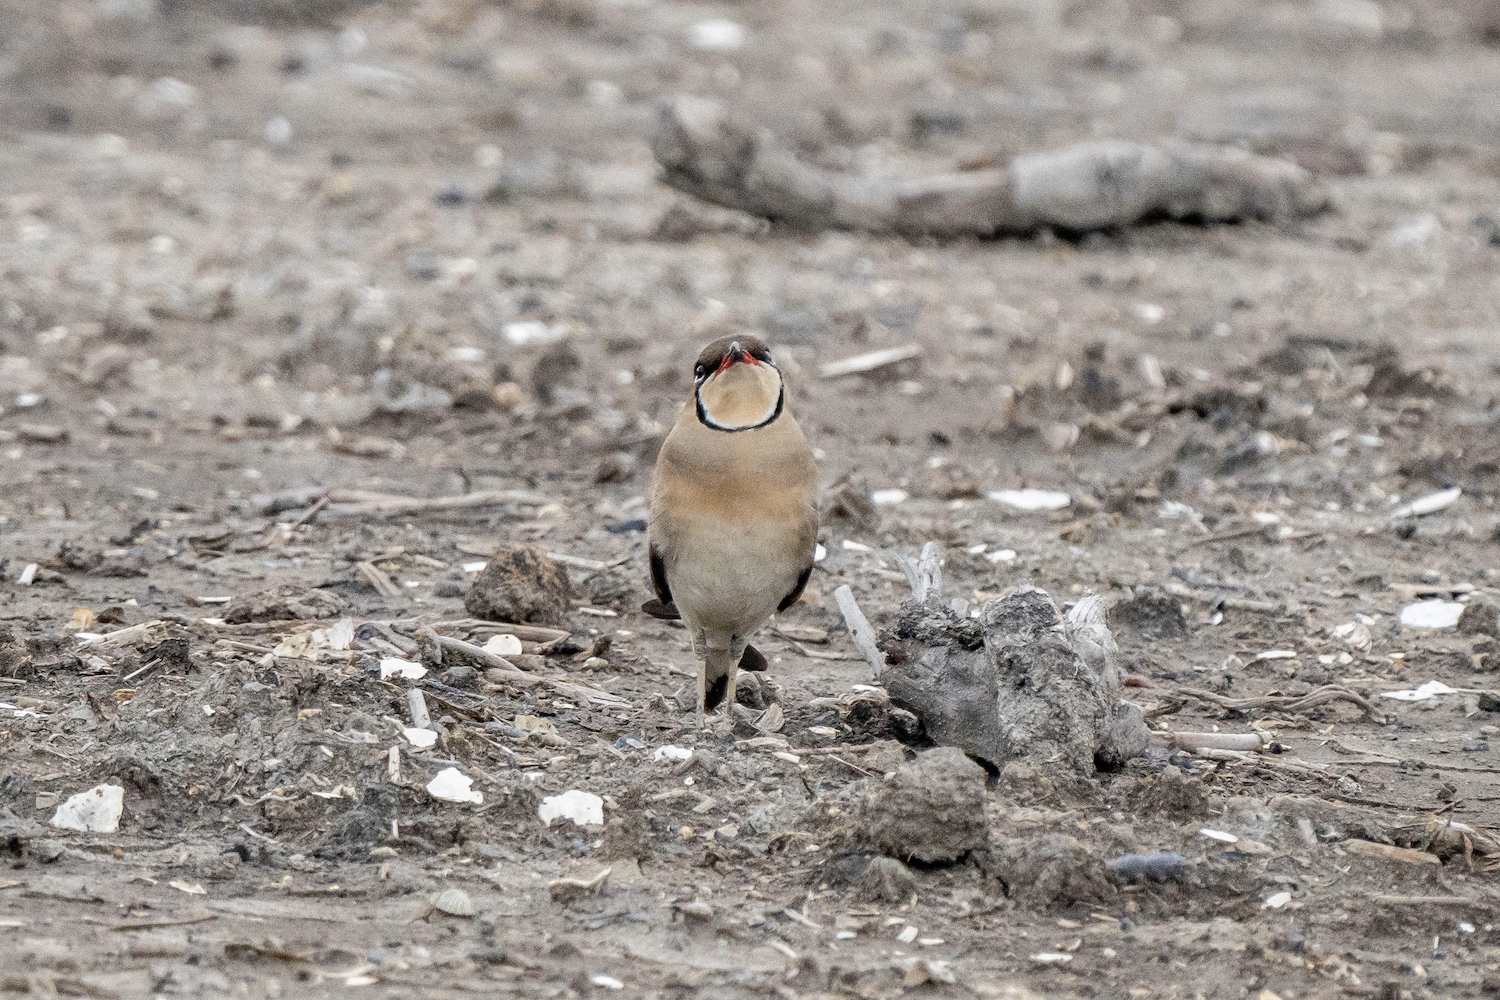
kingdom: Animalia
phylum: Chordata
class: Aves
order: Charadriiformes
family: Glareolidae
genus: Glareola
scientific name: Glareola maldivarum
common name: Oriental pratincole
